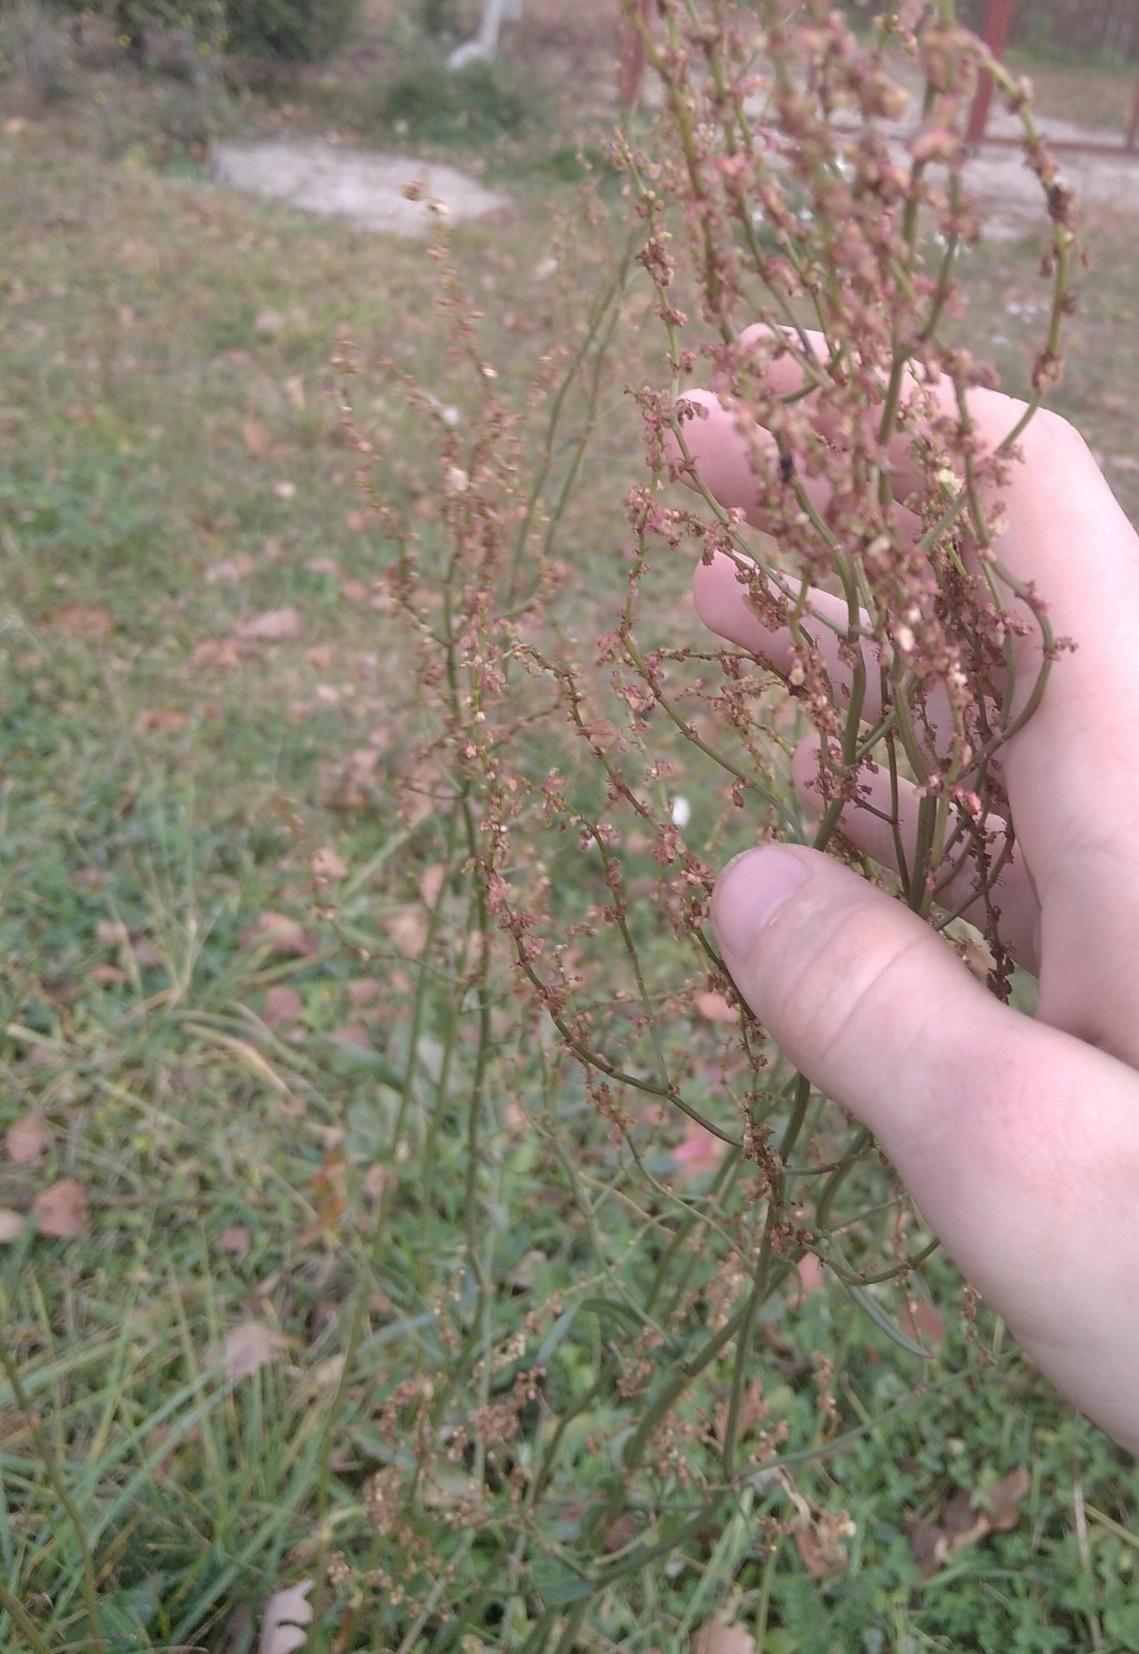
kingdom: Plantae
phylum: Tracheophyta
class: Magnoliopsida
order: Caryophyllales
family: Polygonaceae
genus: Rumex
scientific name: Rumex acetosa
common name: Garden sorrel
